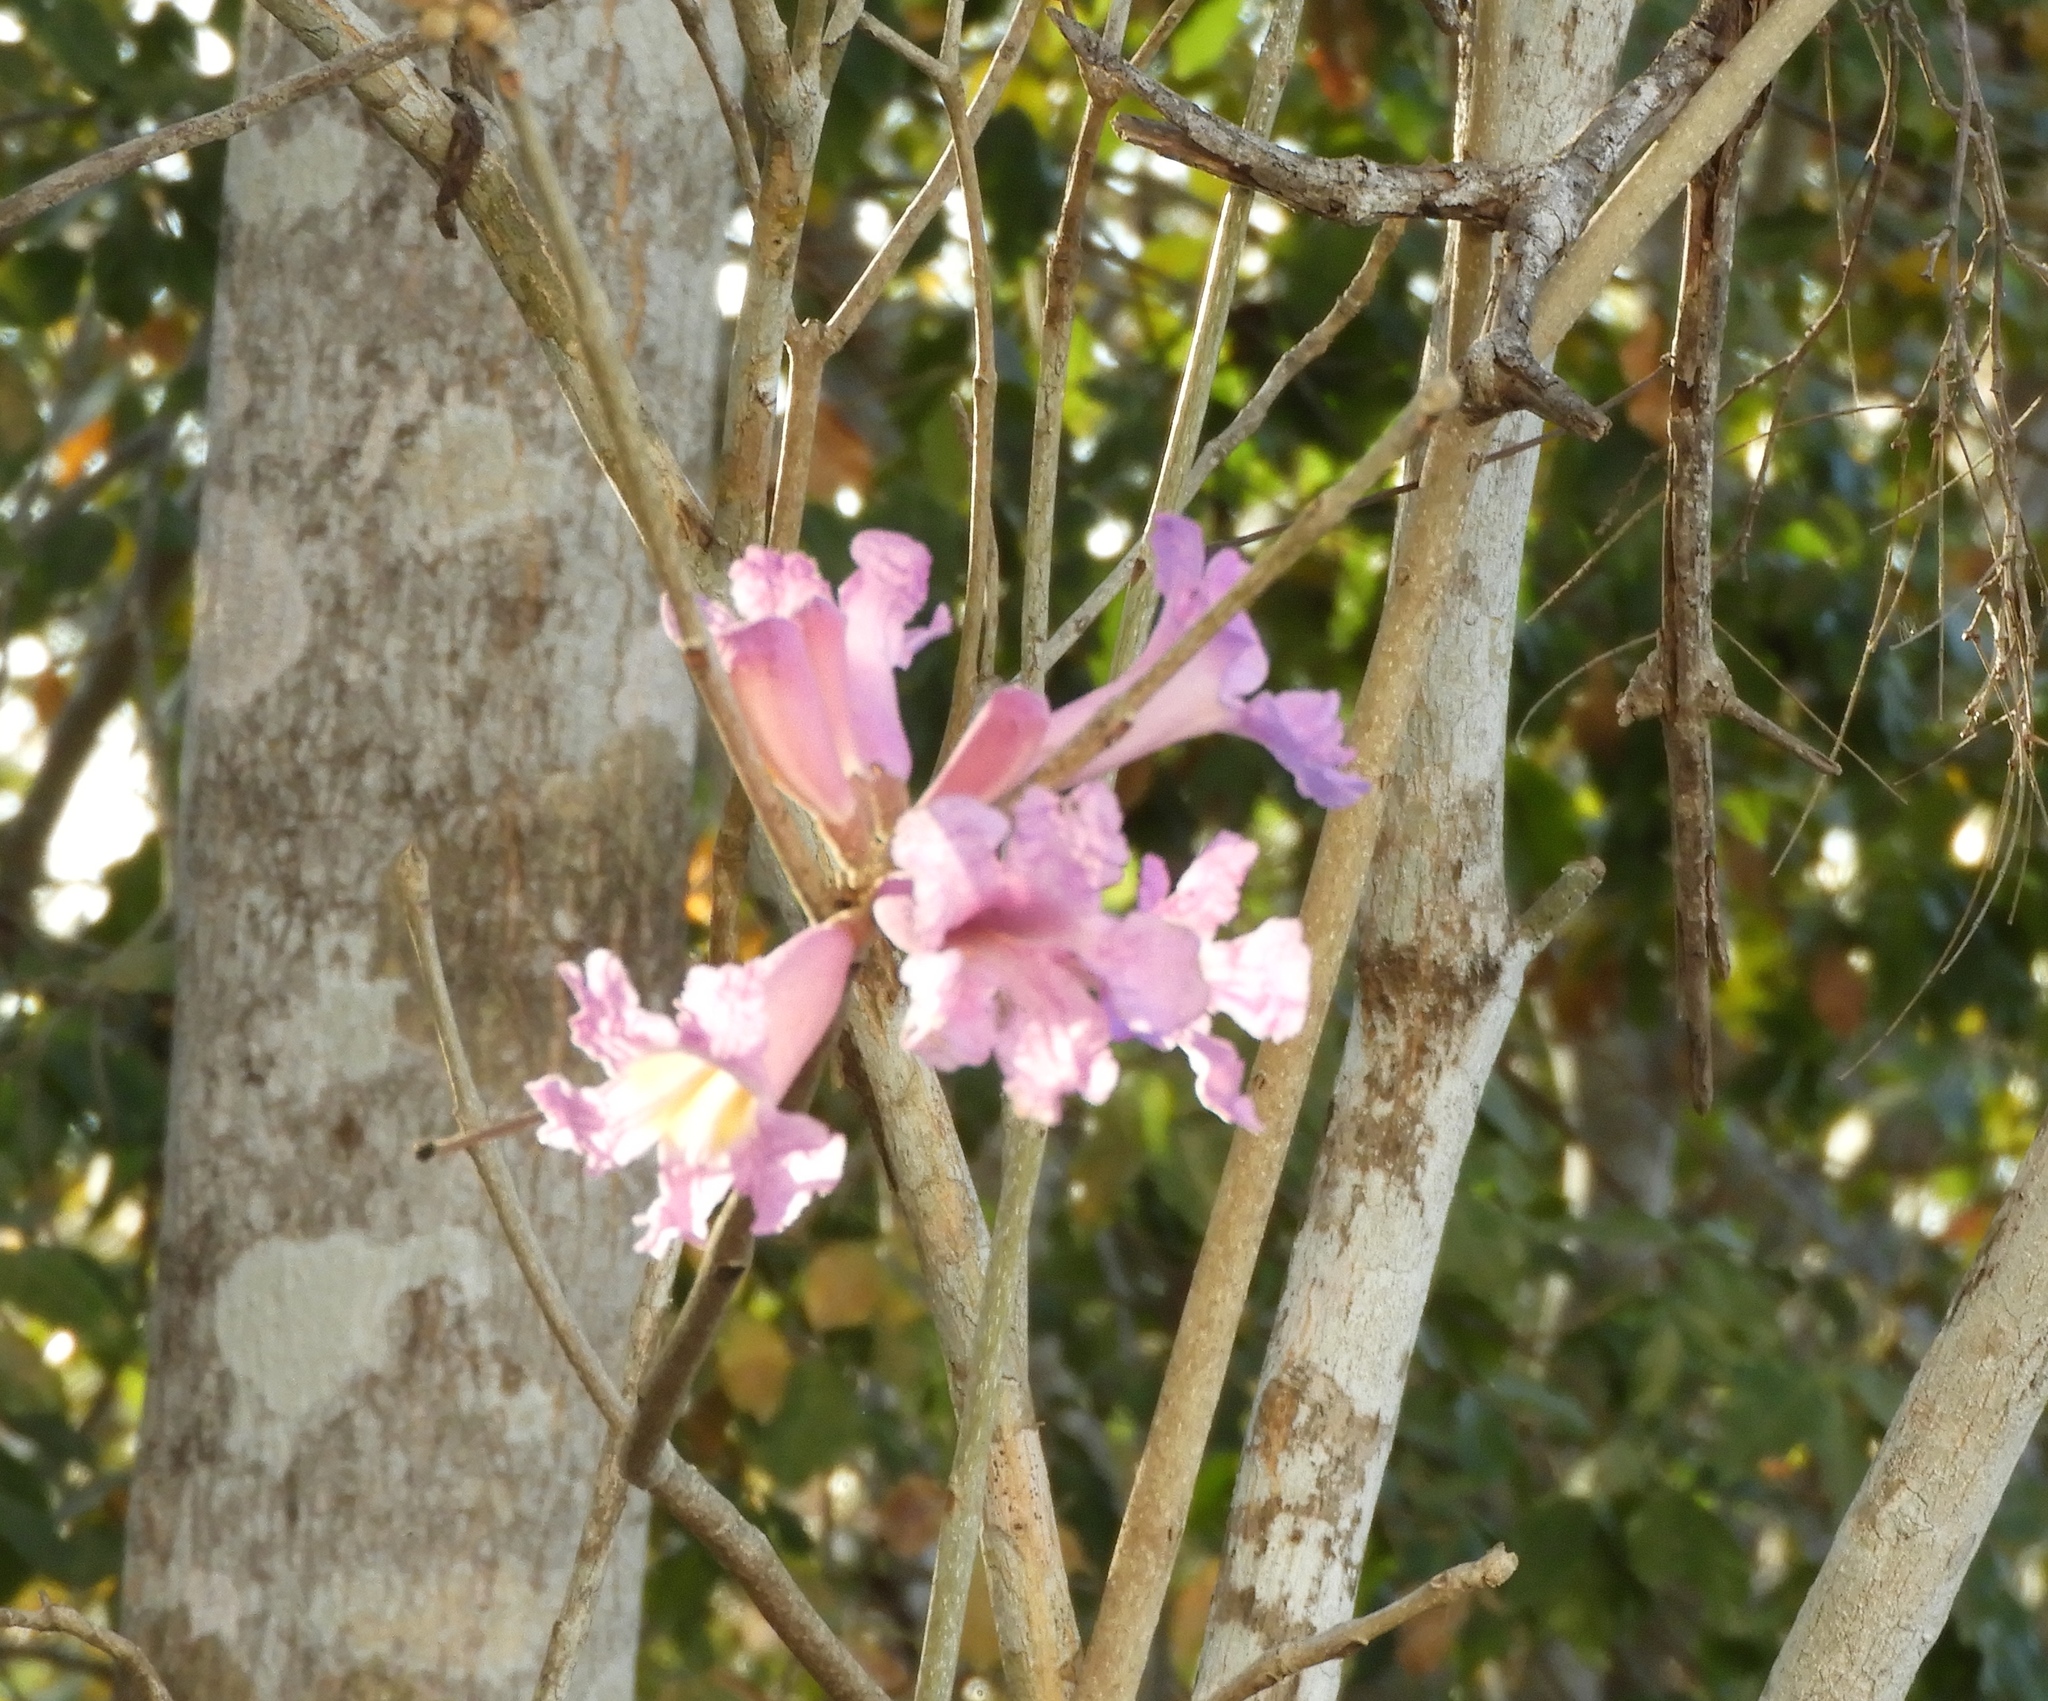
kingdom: Plantae
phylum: Tracheophyta
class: Magnoliopsida
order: Lamiales
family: Bignoniaceae
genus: Handroanthus
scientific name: Handroanthus impetiginosum
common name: Pink trumpet tree
